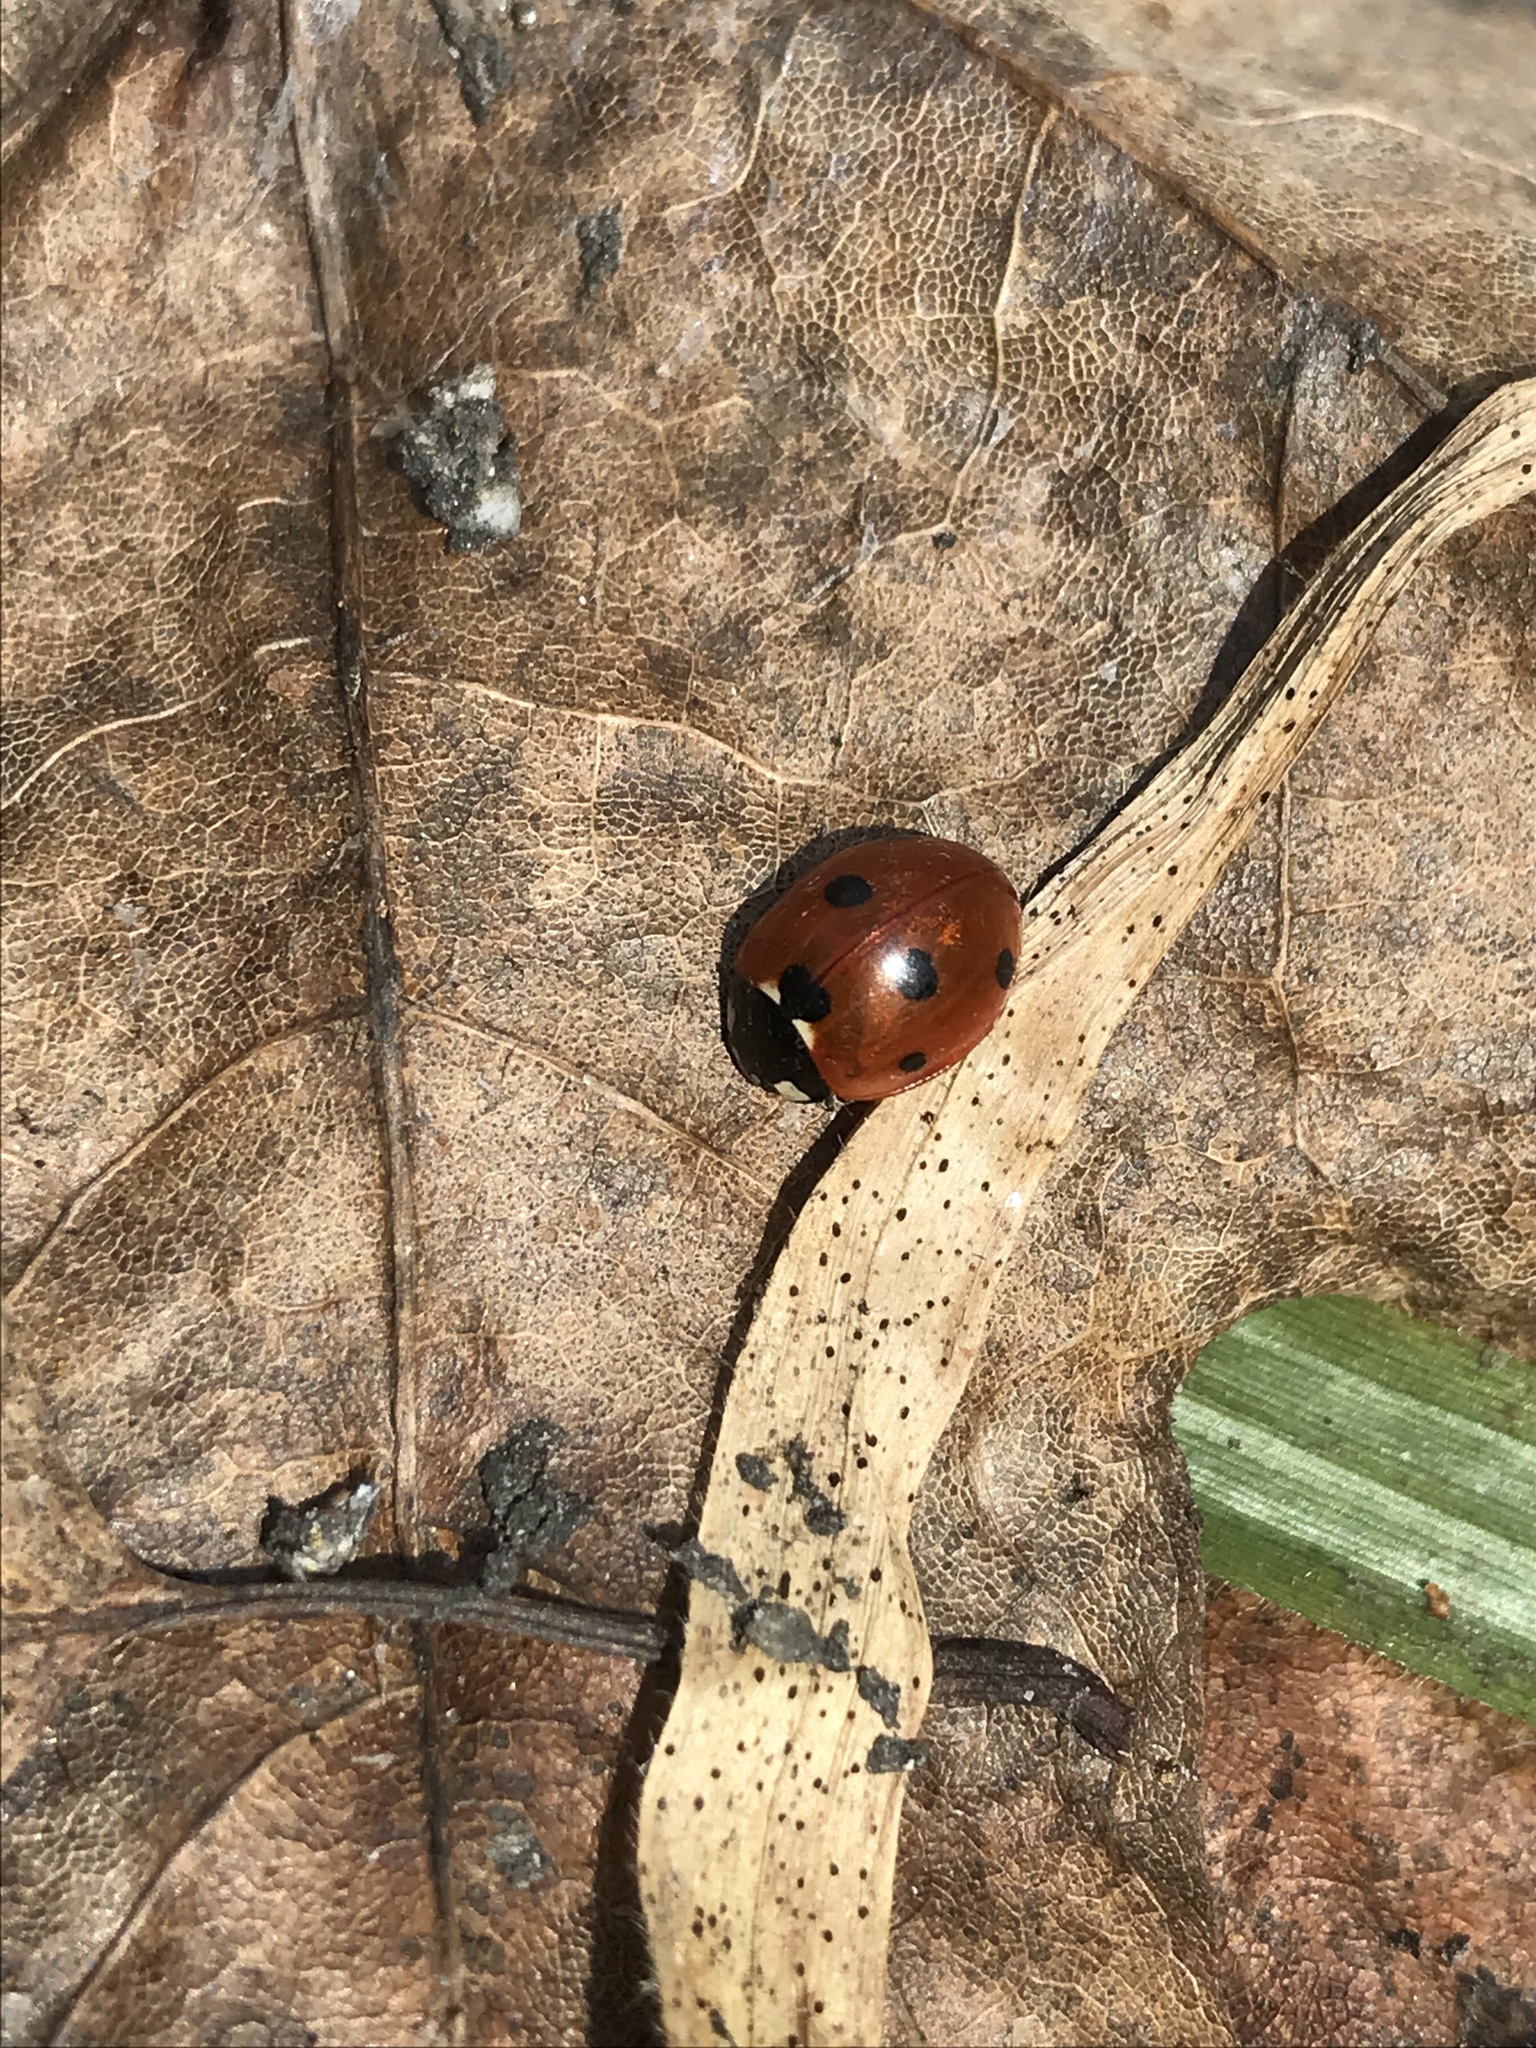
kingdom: Animalia
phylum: Arthropoda
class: Insecta
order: Coleoptera
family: Coccinellidae
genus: Coccinella
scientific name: Coccinella septempunctata
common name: Sevenspotted lady beetle
